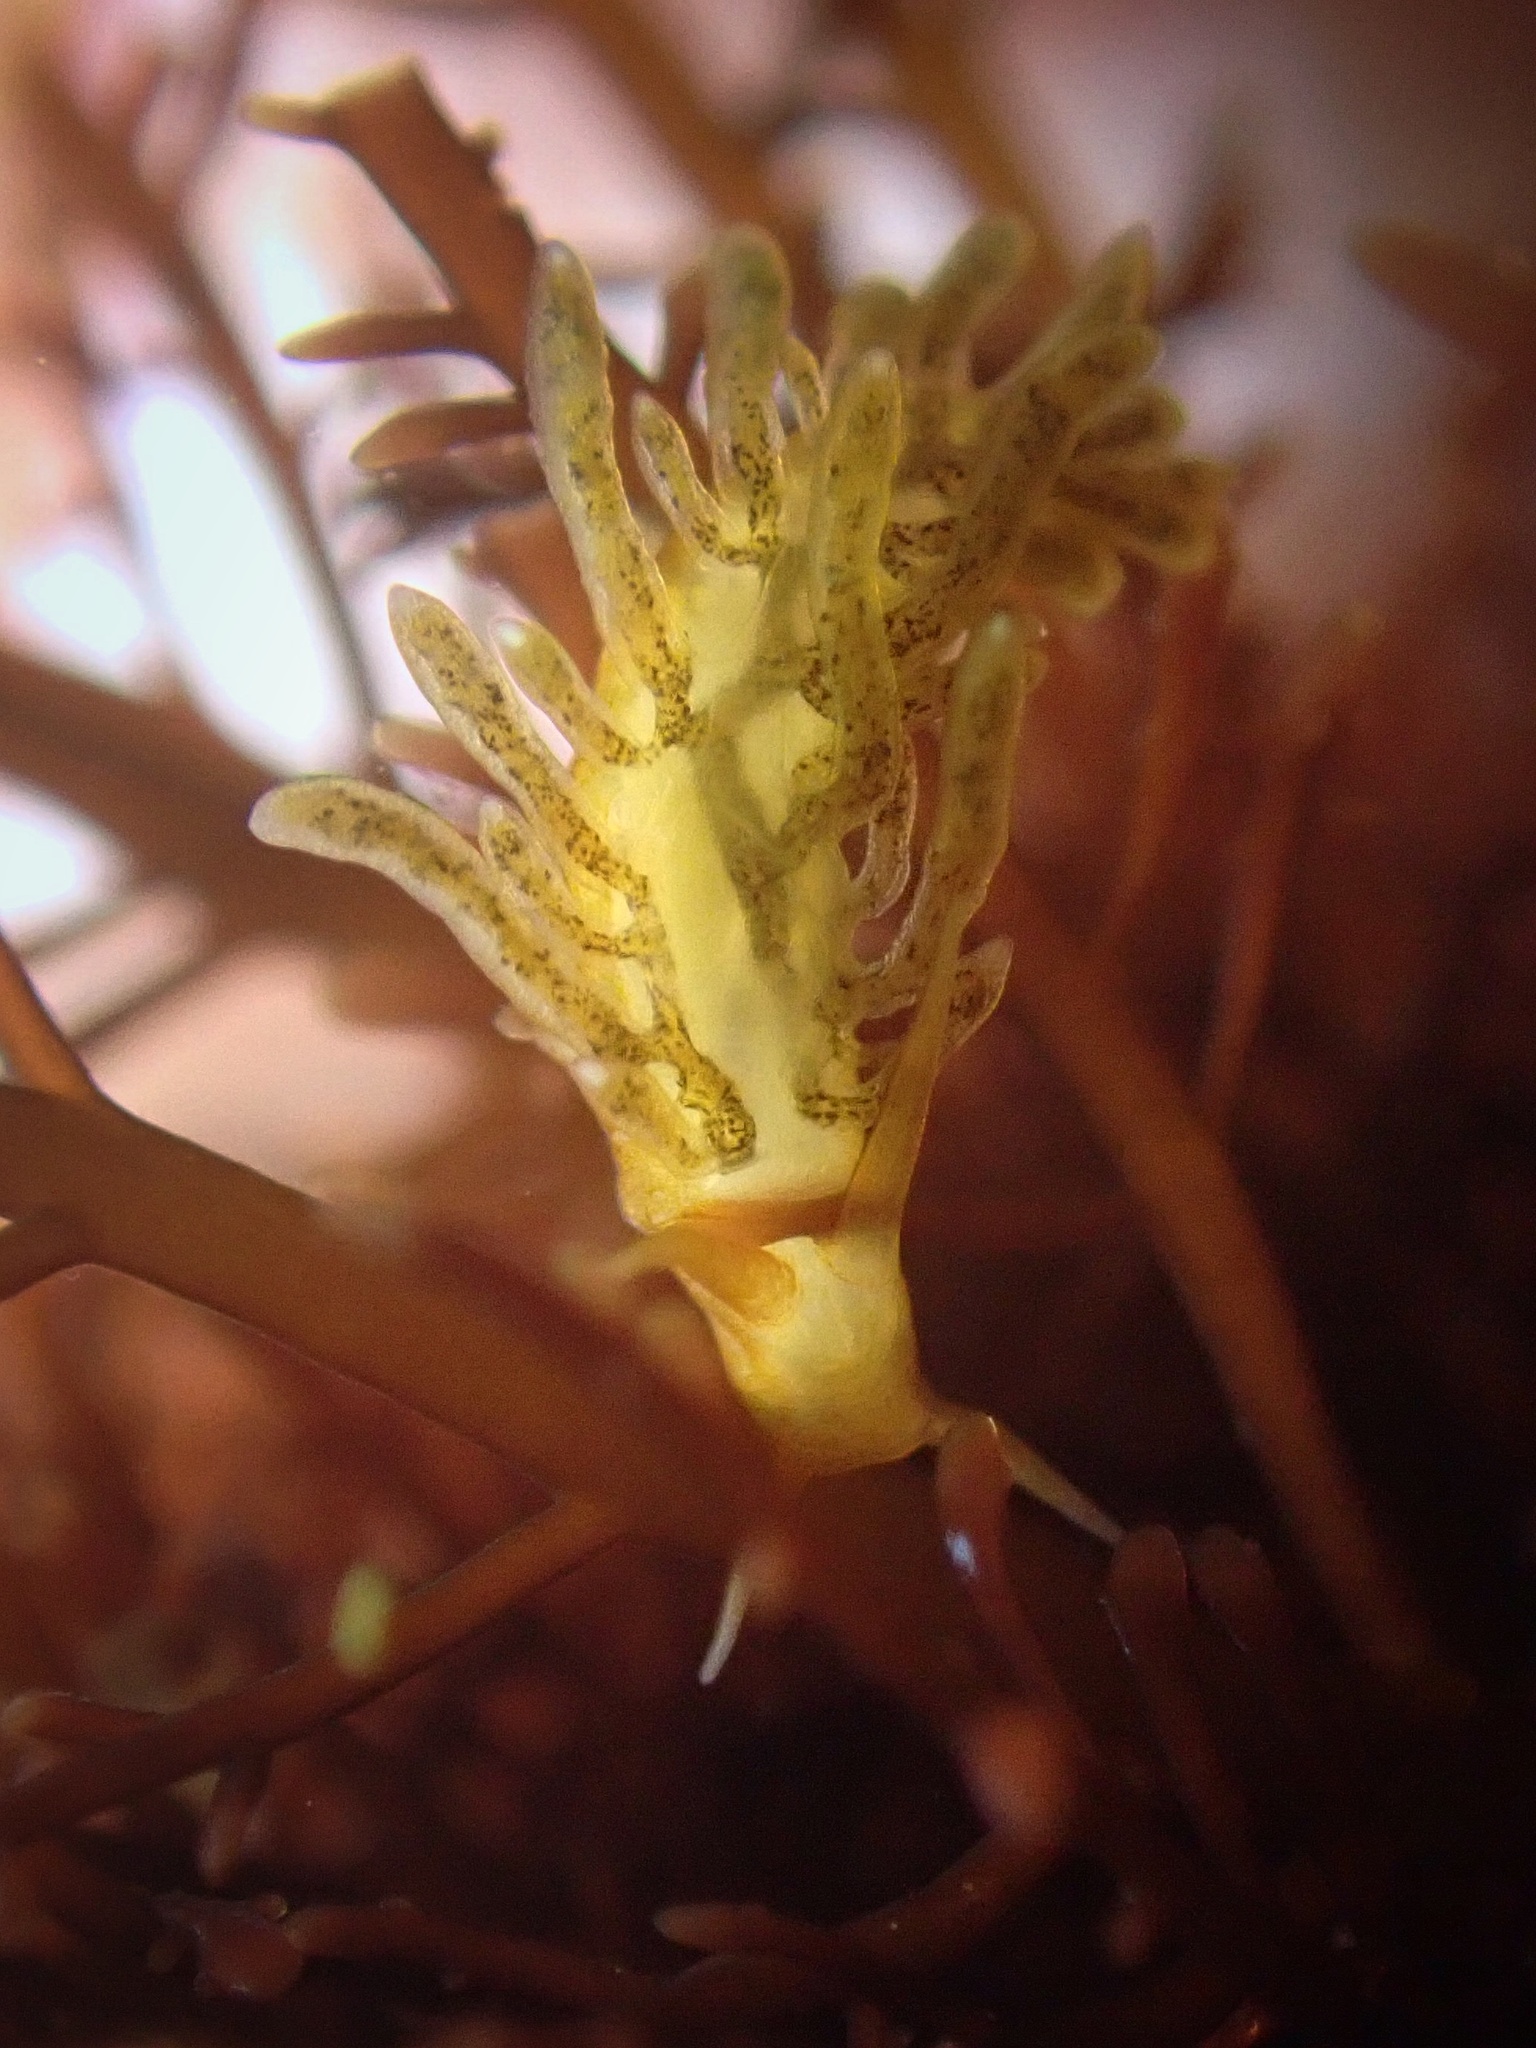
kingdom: Animalia
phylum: Mollusca
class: Gastropoda
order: Nudibranchia
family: Cuthonidae
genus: Cuthona
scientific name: Cuthona phoenix
